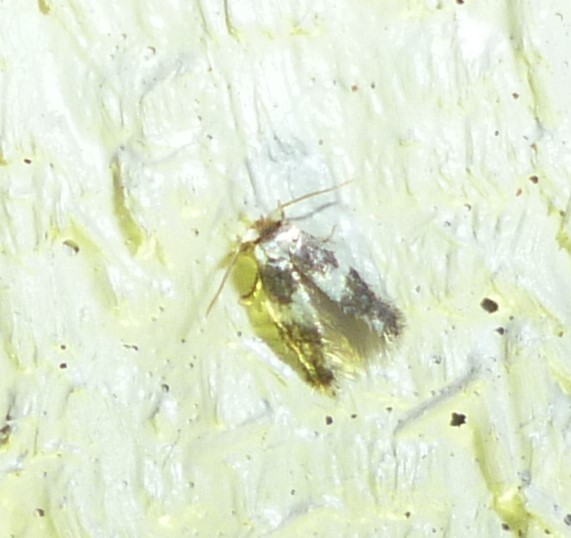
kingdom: Animalia
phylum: Arthropoda
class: Insecta
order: Lepidoptera
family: Nepticulidae
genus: Acalyptris
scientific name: Acalyptris thoracealbella
